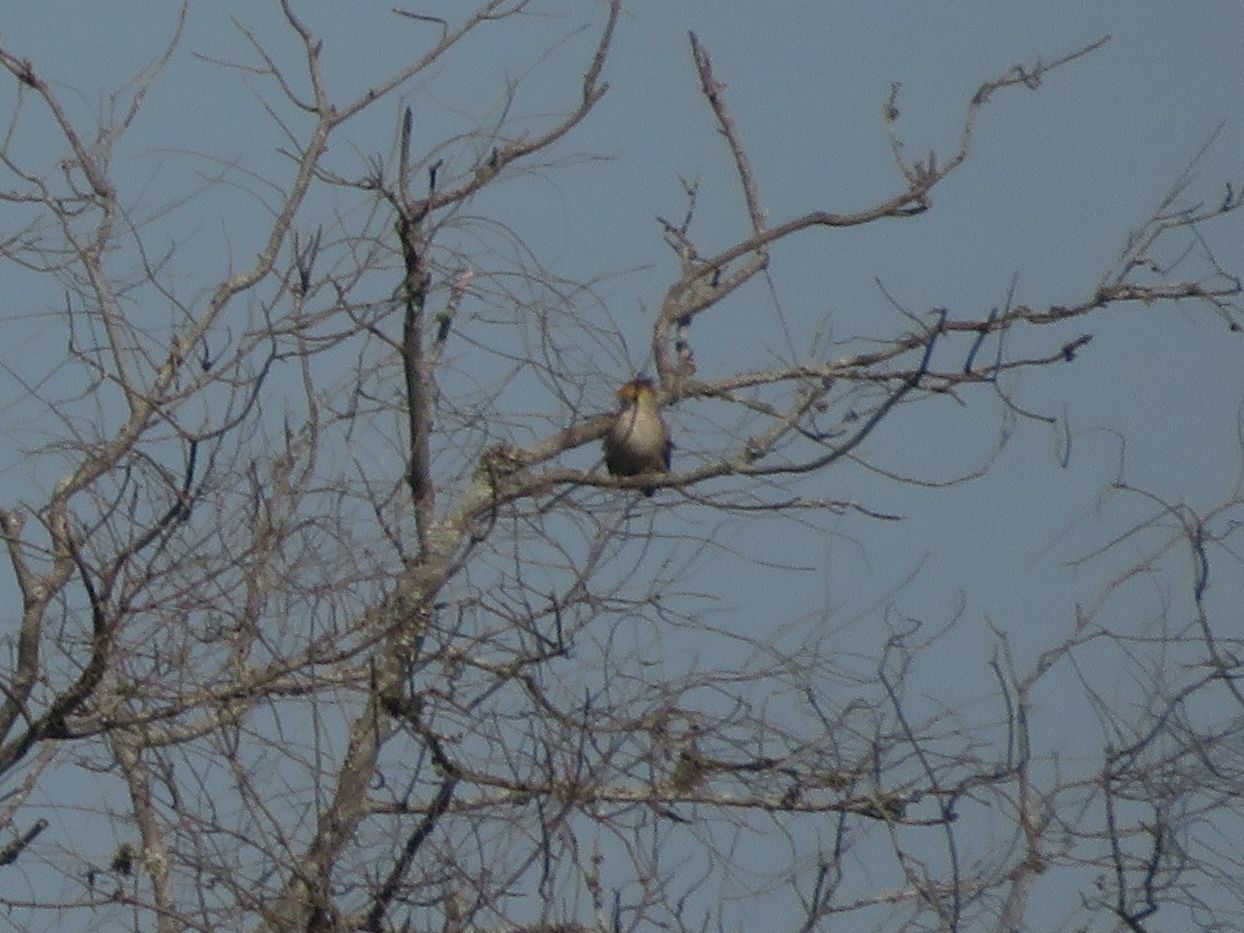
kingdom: Animalia
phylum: Chordata
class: Aves
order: Cuculiformes
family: Cuculidae
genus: Guira
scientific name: Guira guira
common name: Guira cuckoo
